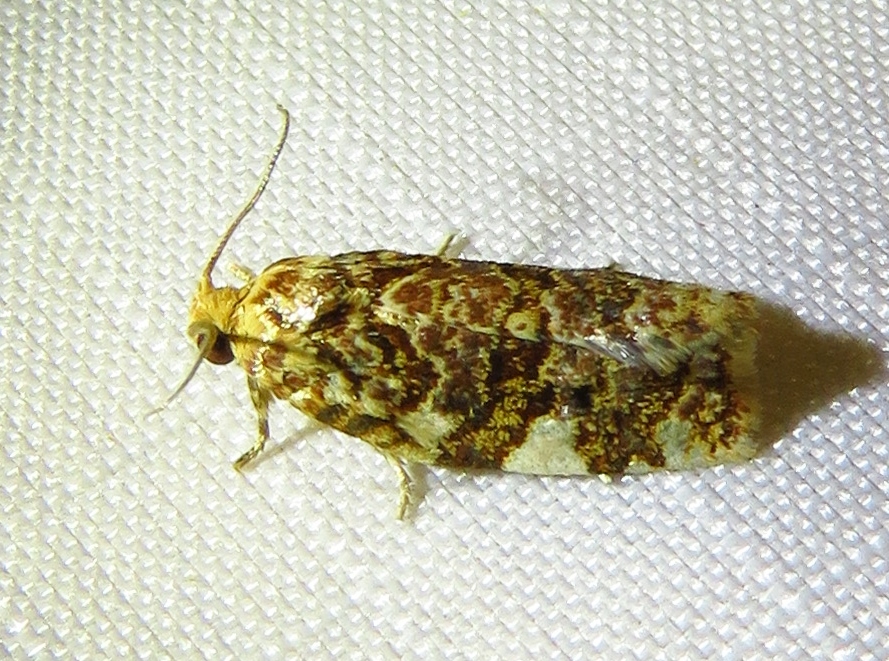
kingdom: Animalia
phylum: Arthropoda
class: Insecta
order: Lepidoptera
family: Tortricidae
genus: Archips
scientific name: Archips argyrospila
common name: Fruit-tree leafroller moth
